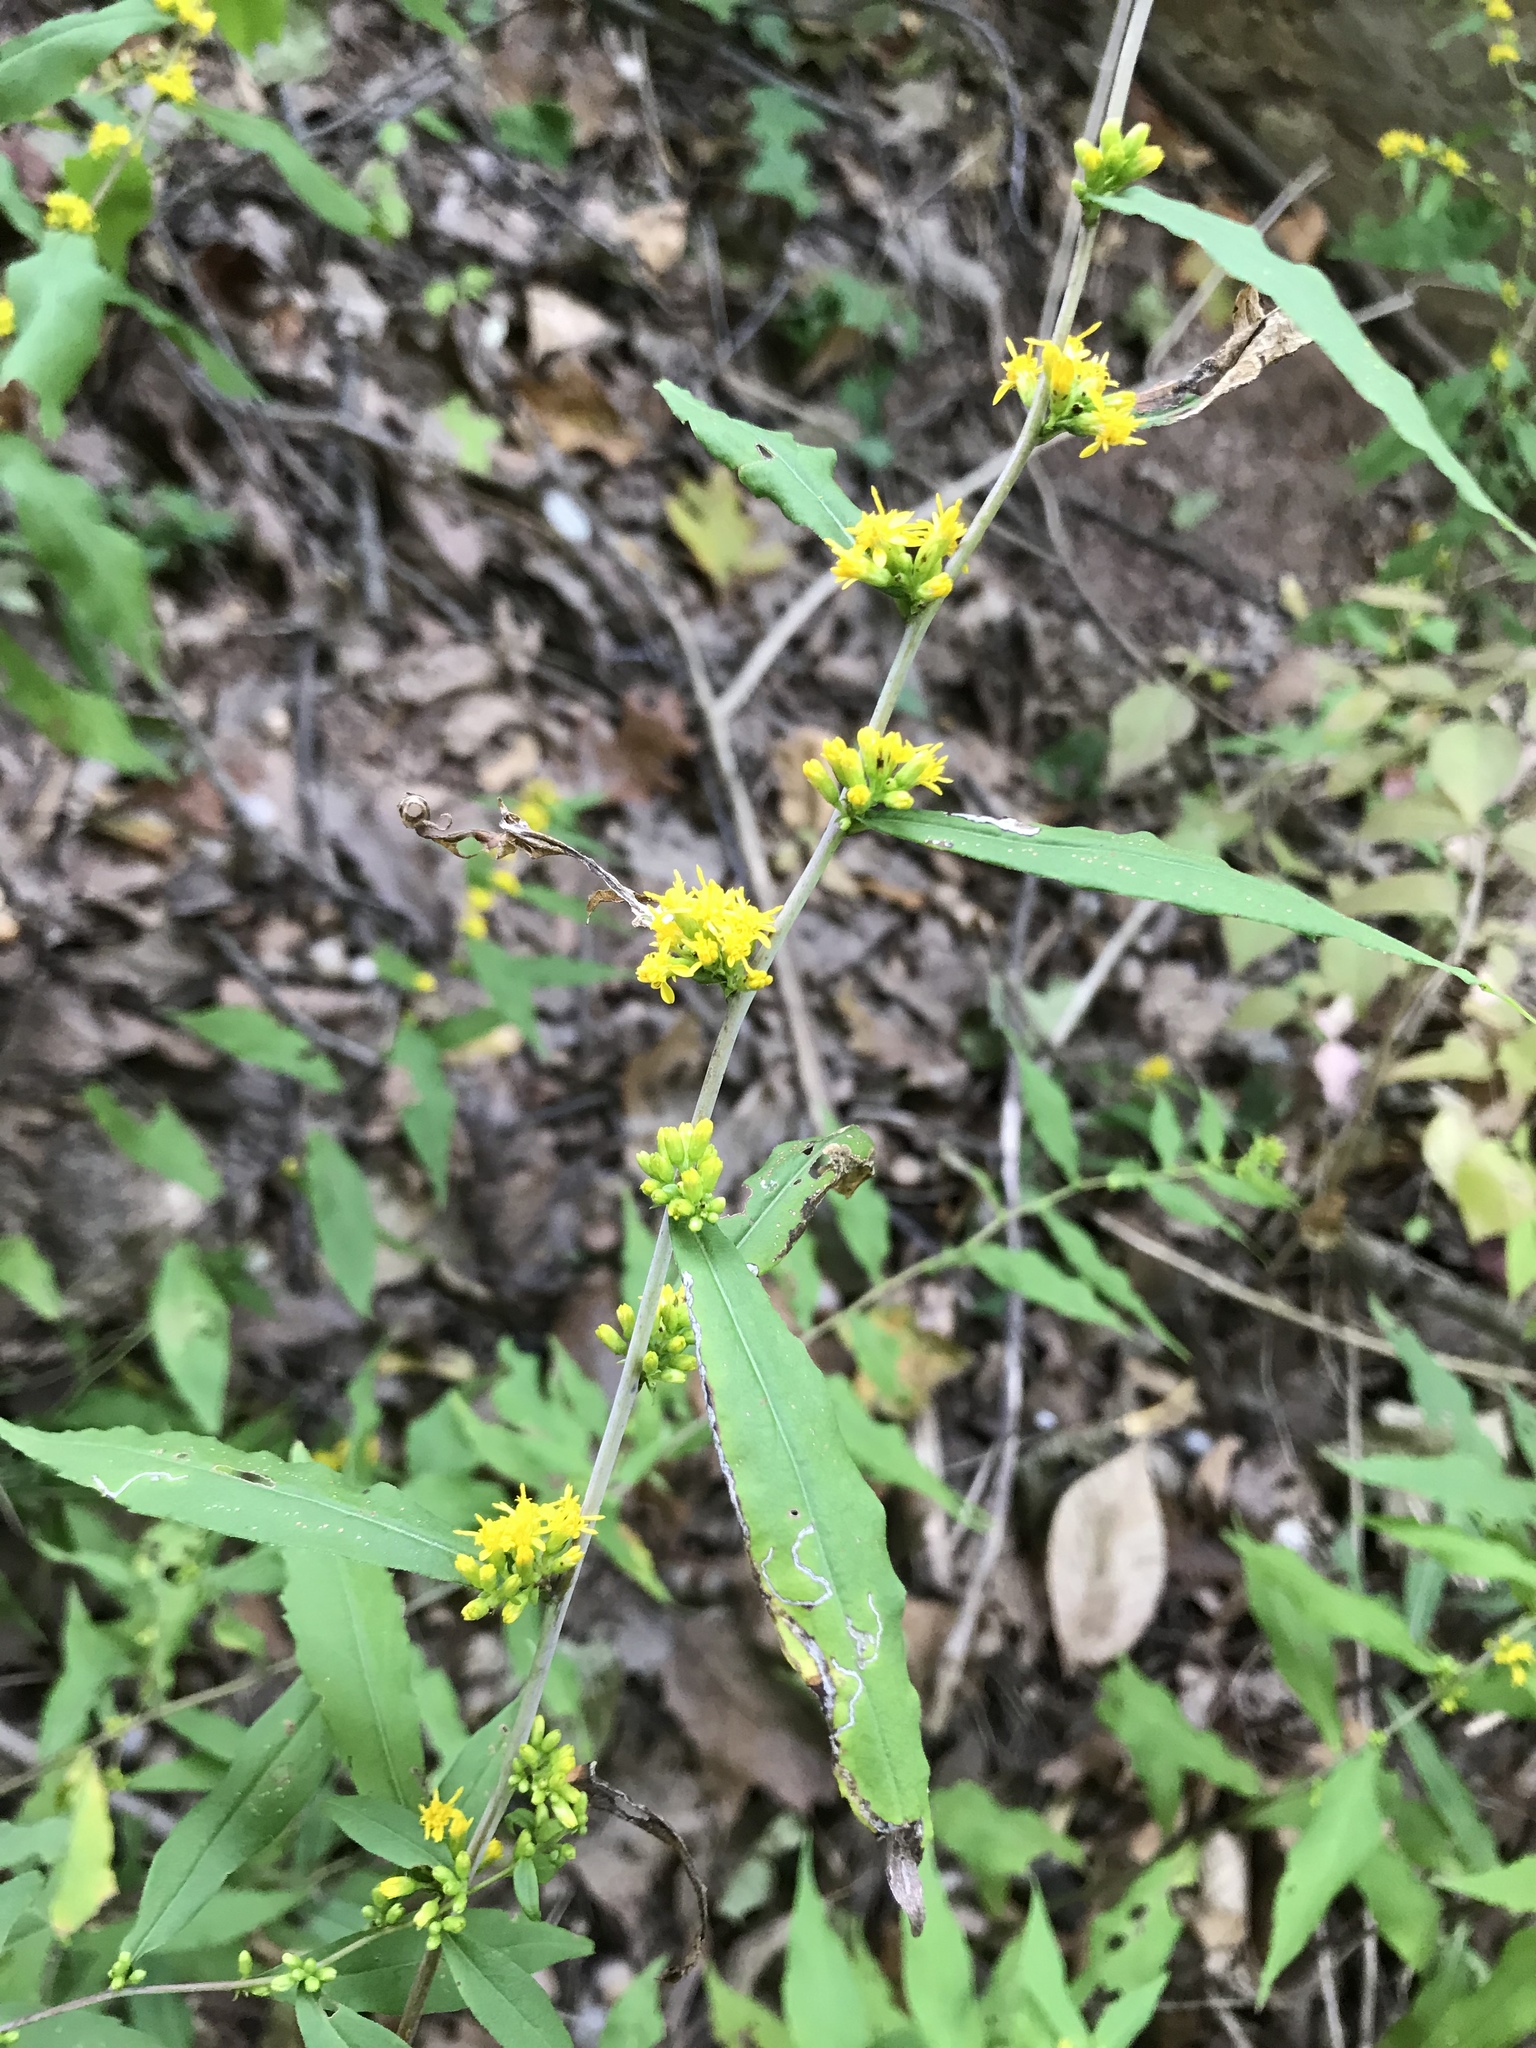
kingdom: Plantae
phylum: Tracheophyta
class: Magnoliopsida
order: Asterales
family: Asteraceae
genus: Solidago
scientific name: Solidago caesia
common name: Woodland goldenrod
